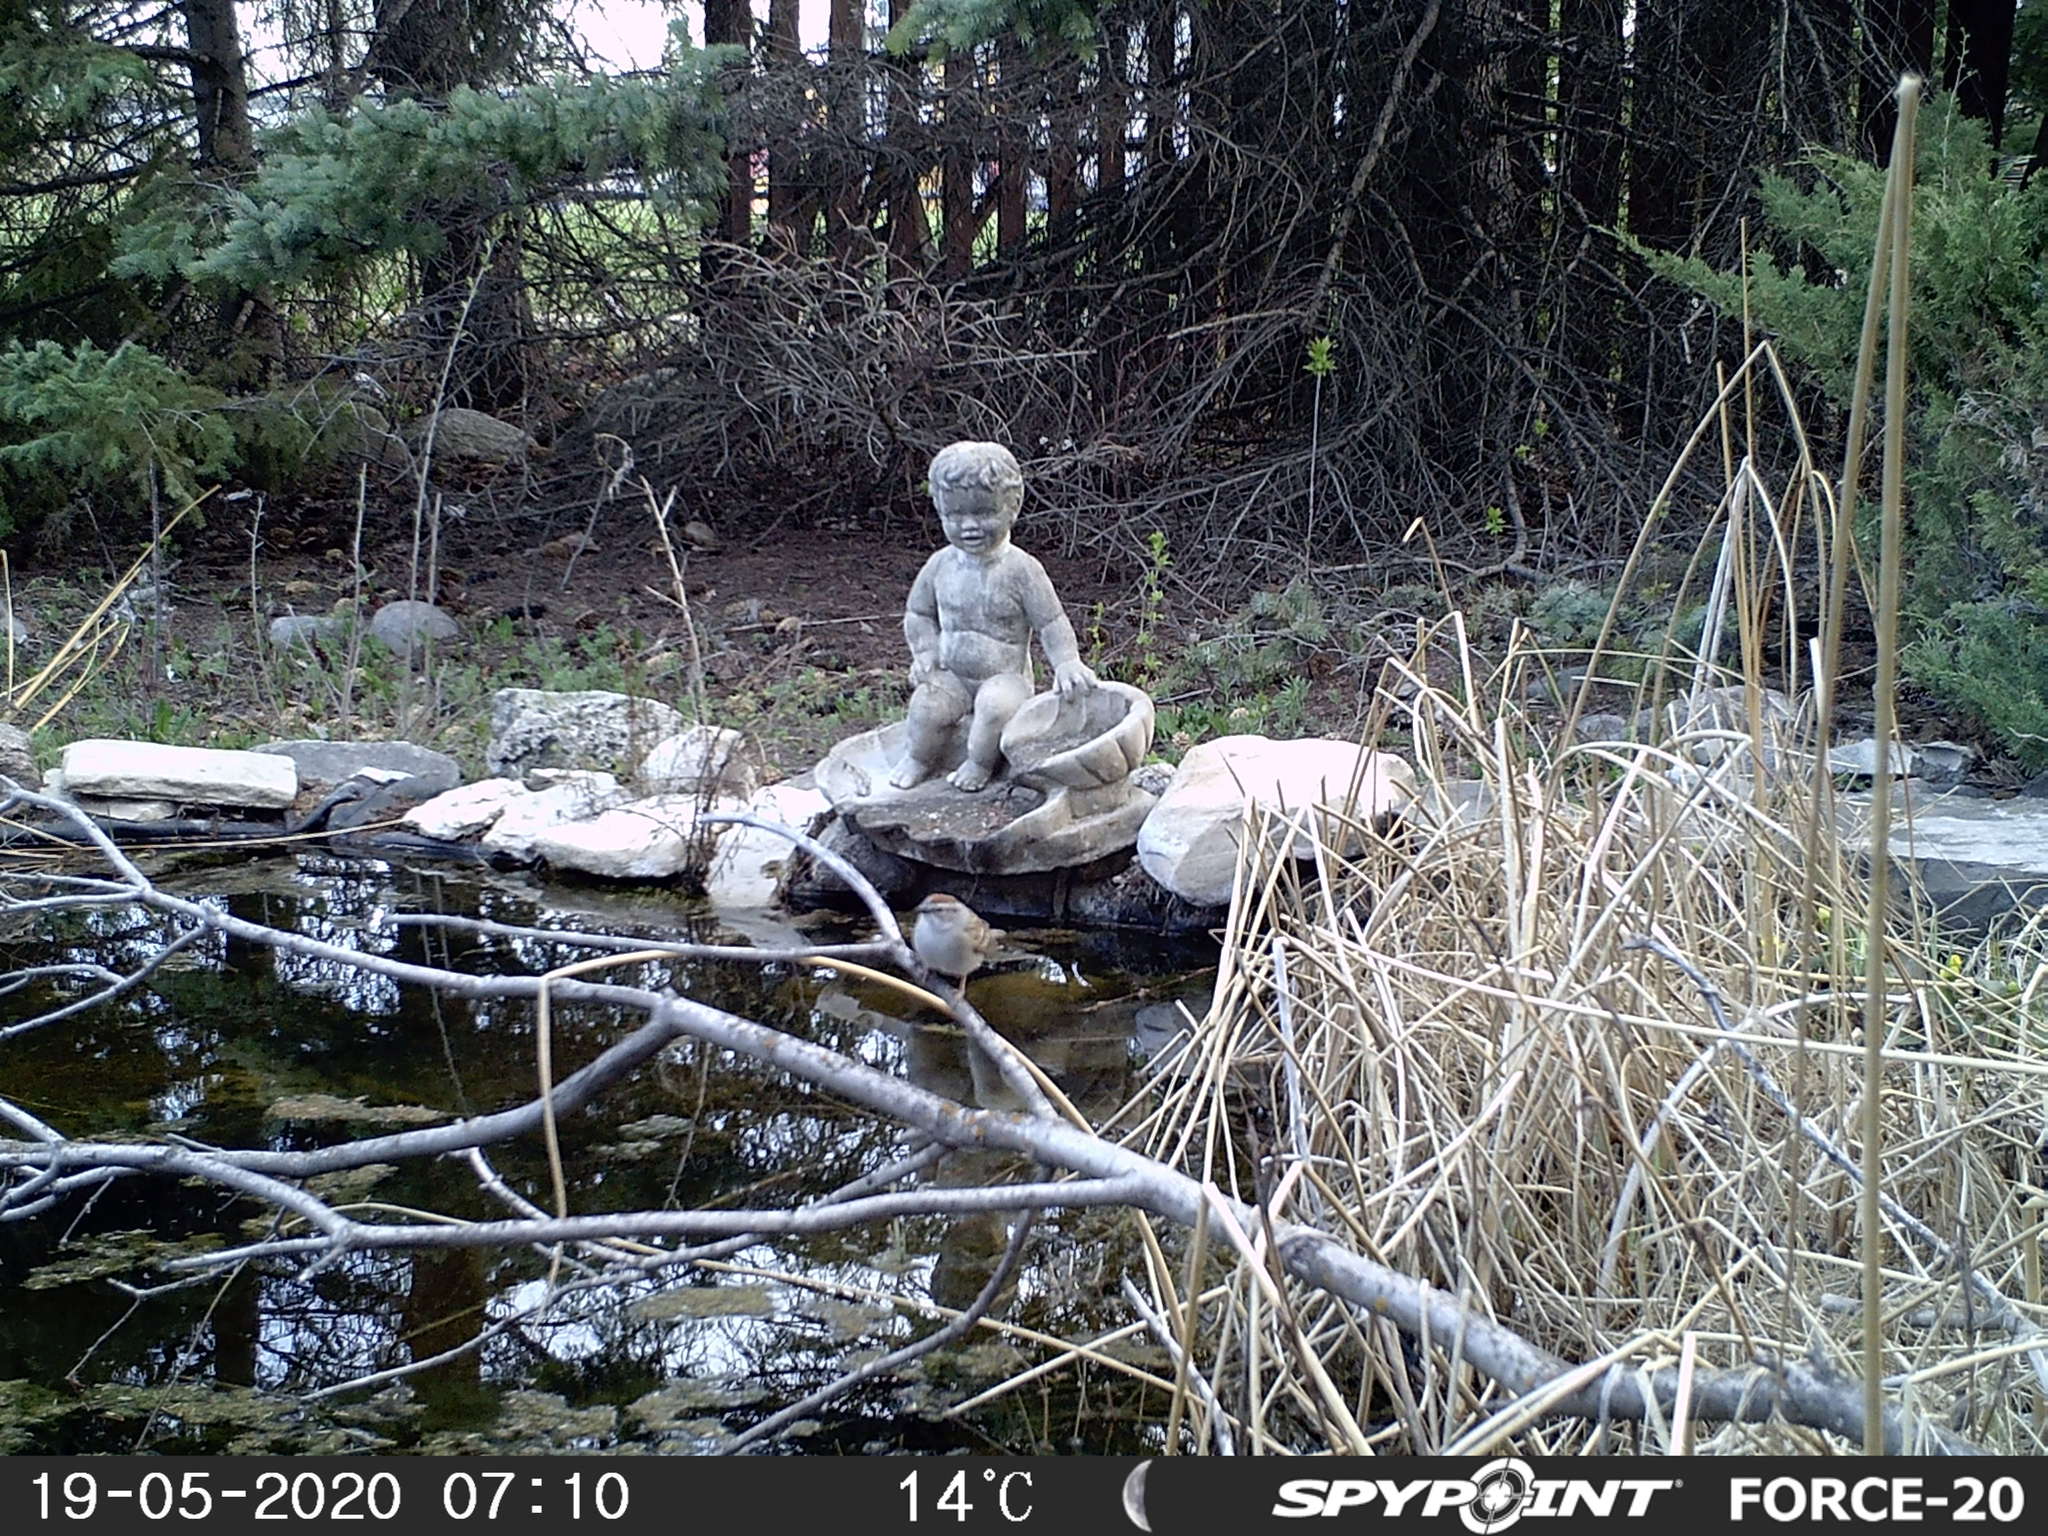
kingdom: Animalia
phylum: Chordata
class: Aves
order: Passeriformes
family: Passerellidae
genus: Spizella
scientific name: Spizella passerina
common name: Chipping sparrow
